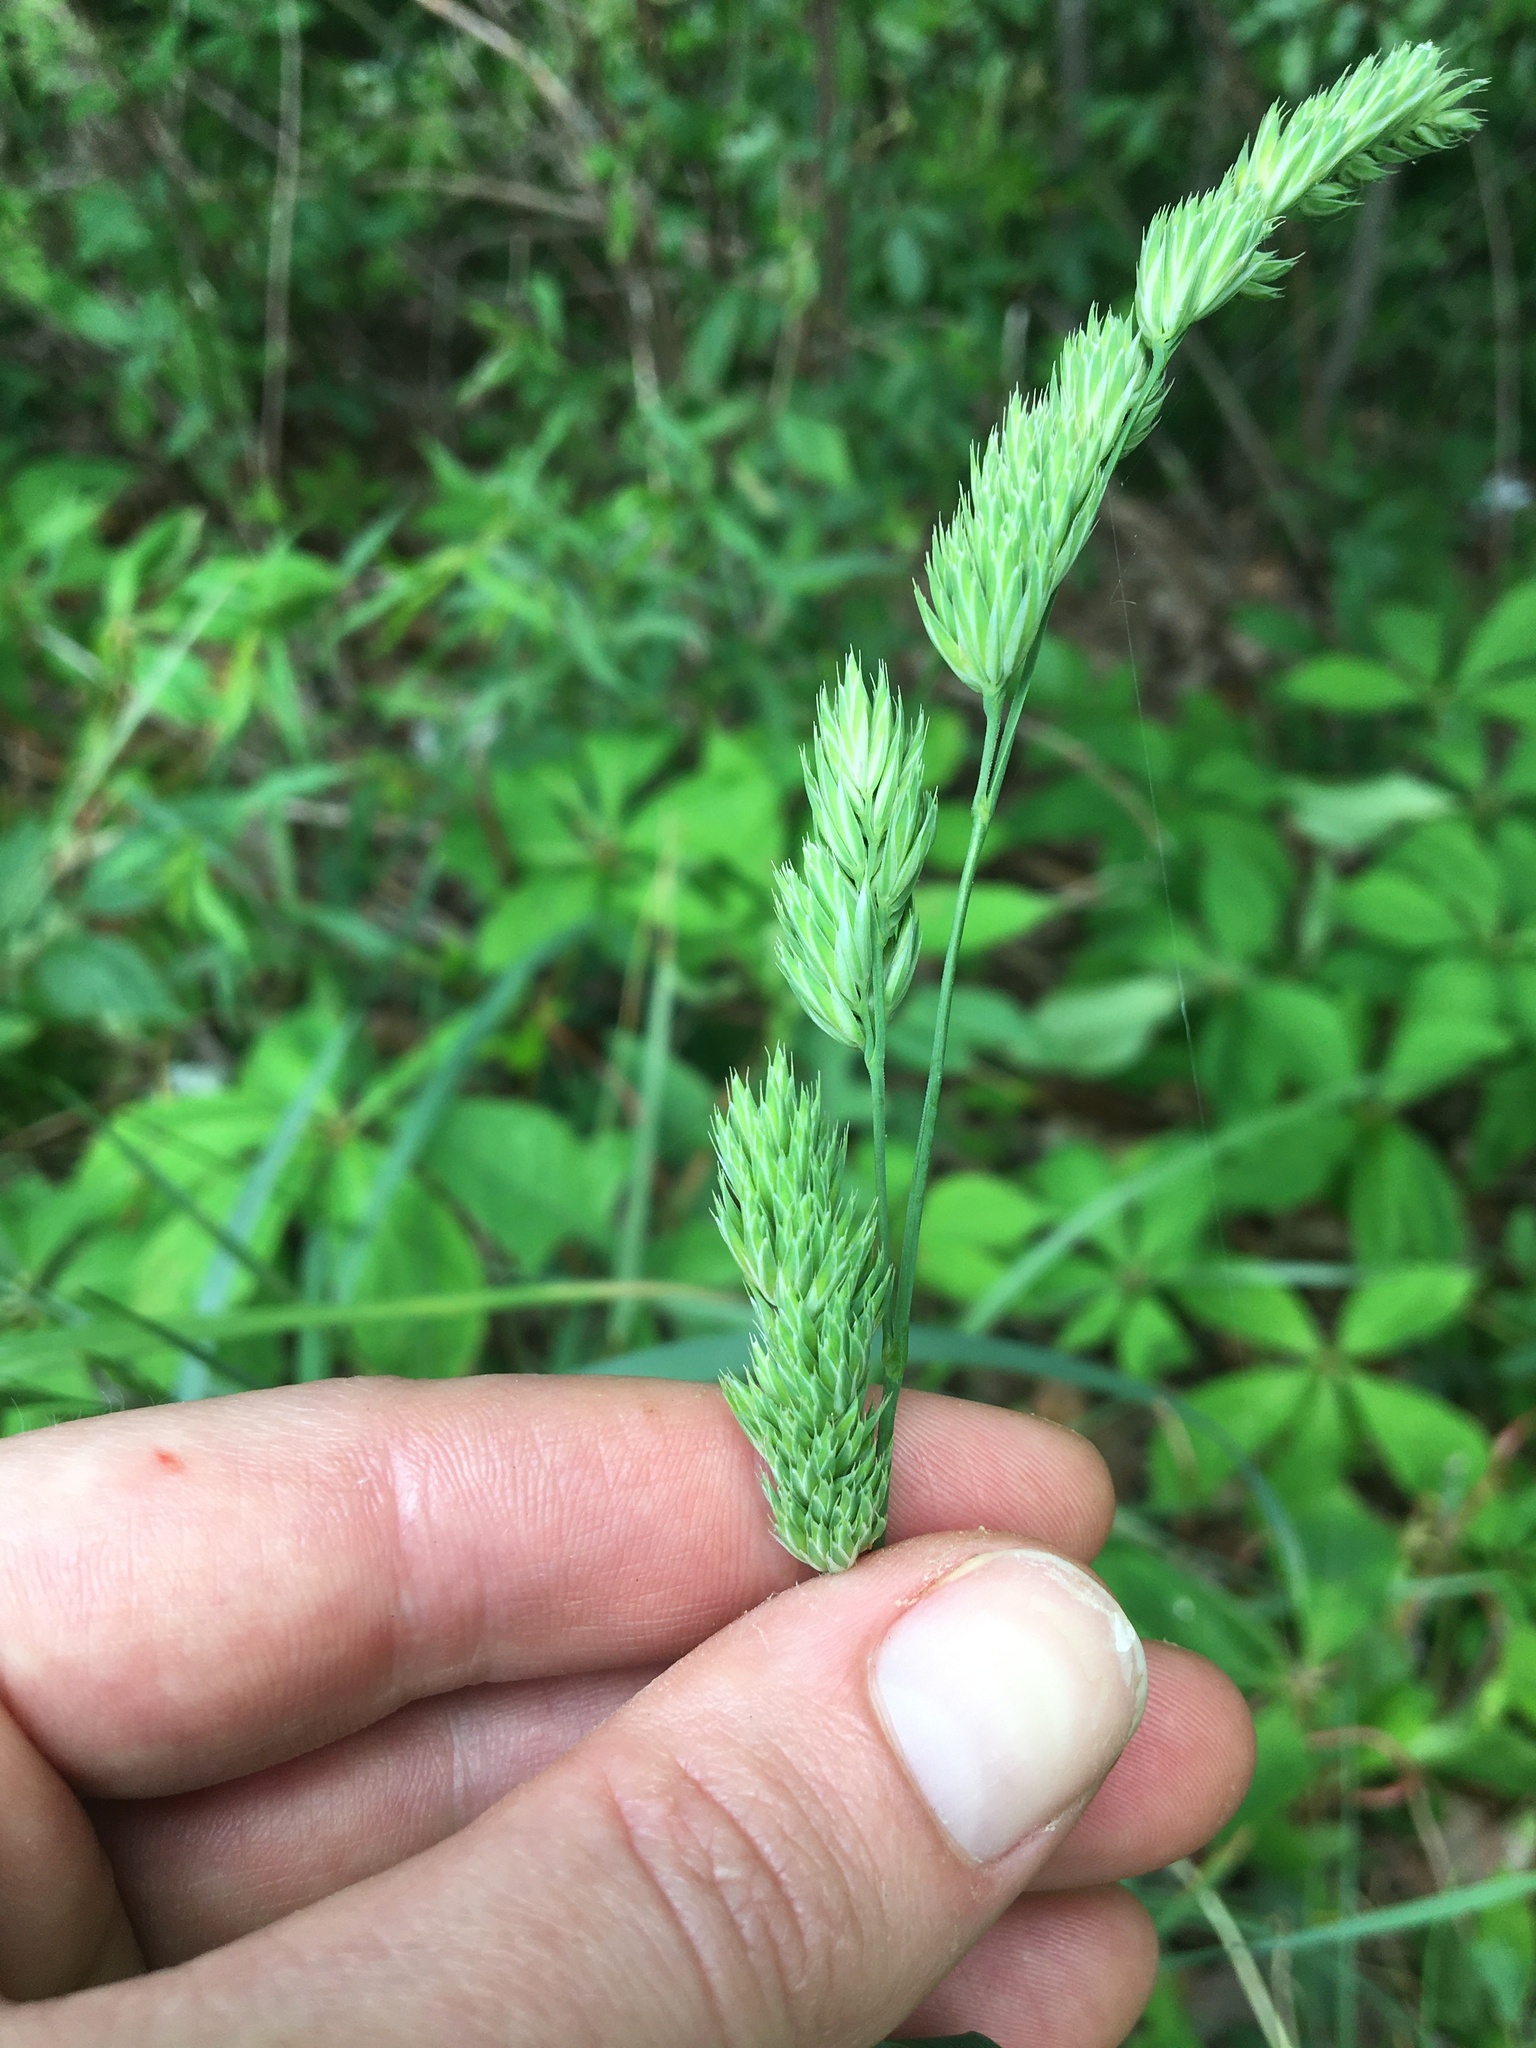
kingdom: Plantae
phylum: Tracheophyta
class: Liliopsida
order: Poales
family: Poaceae
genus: Dactylis
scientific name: Dactylis glomerata
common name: Orchardgrass
